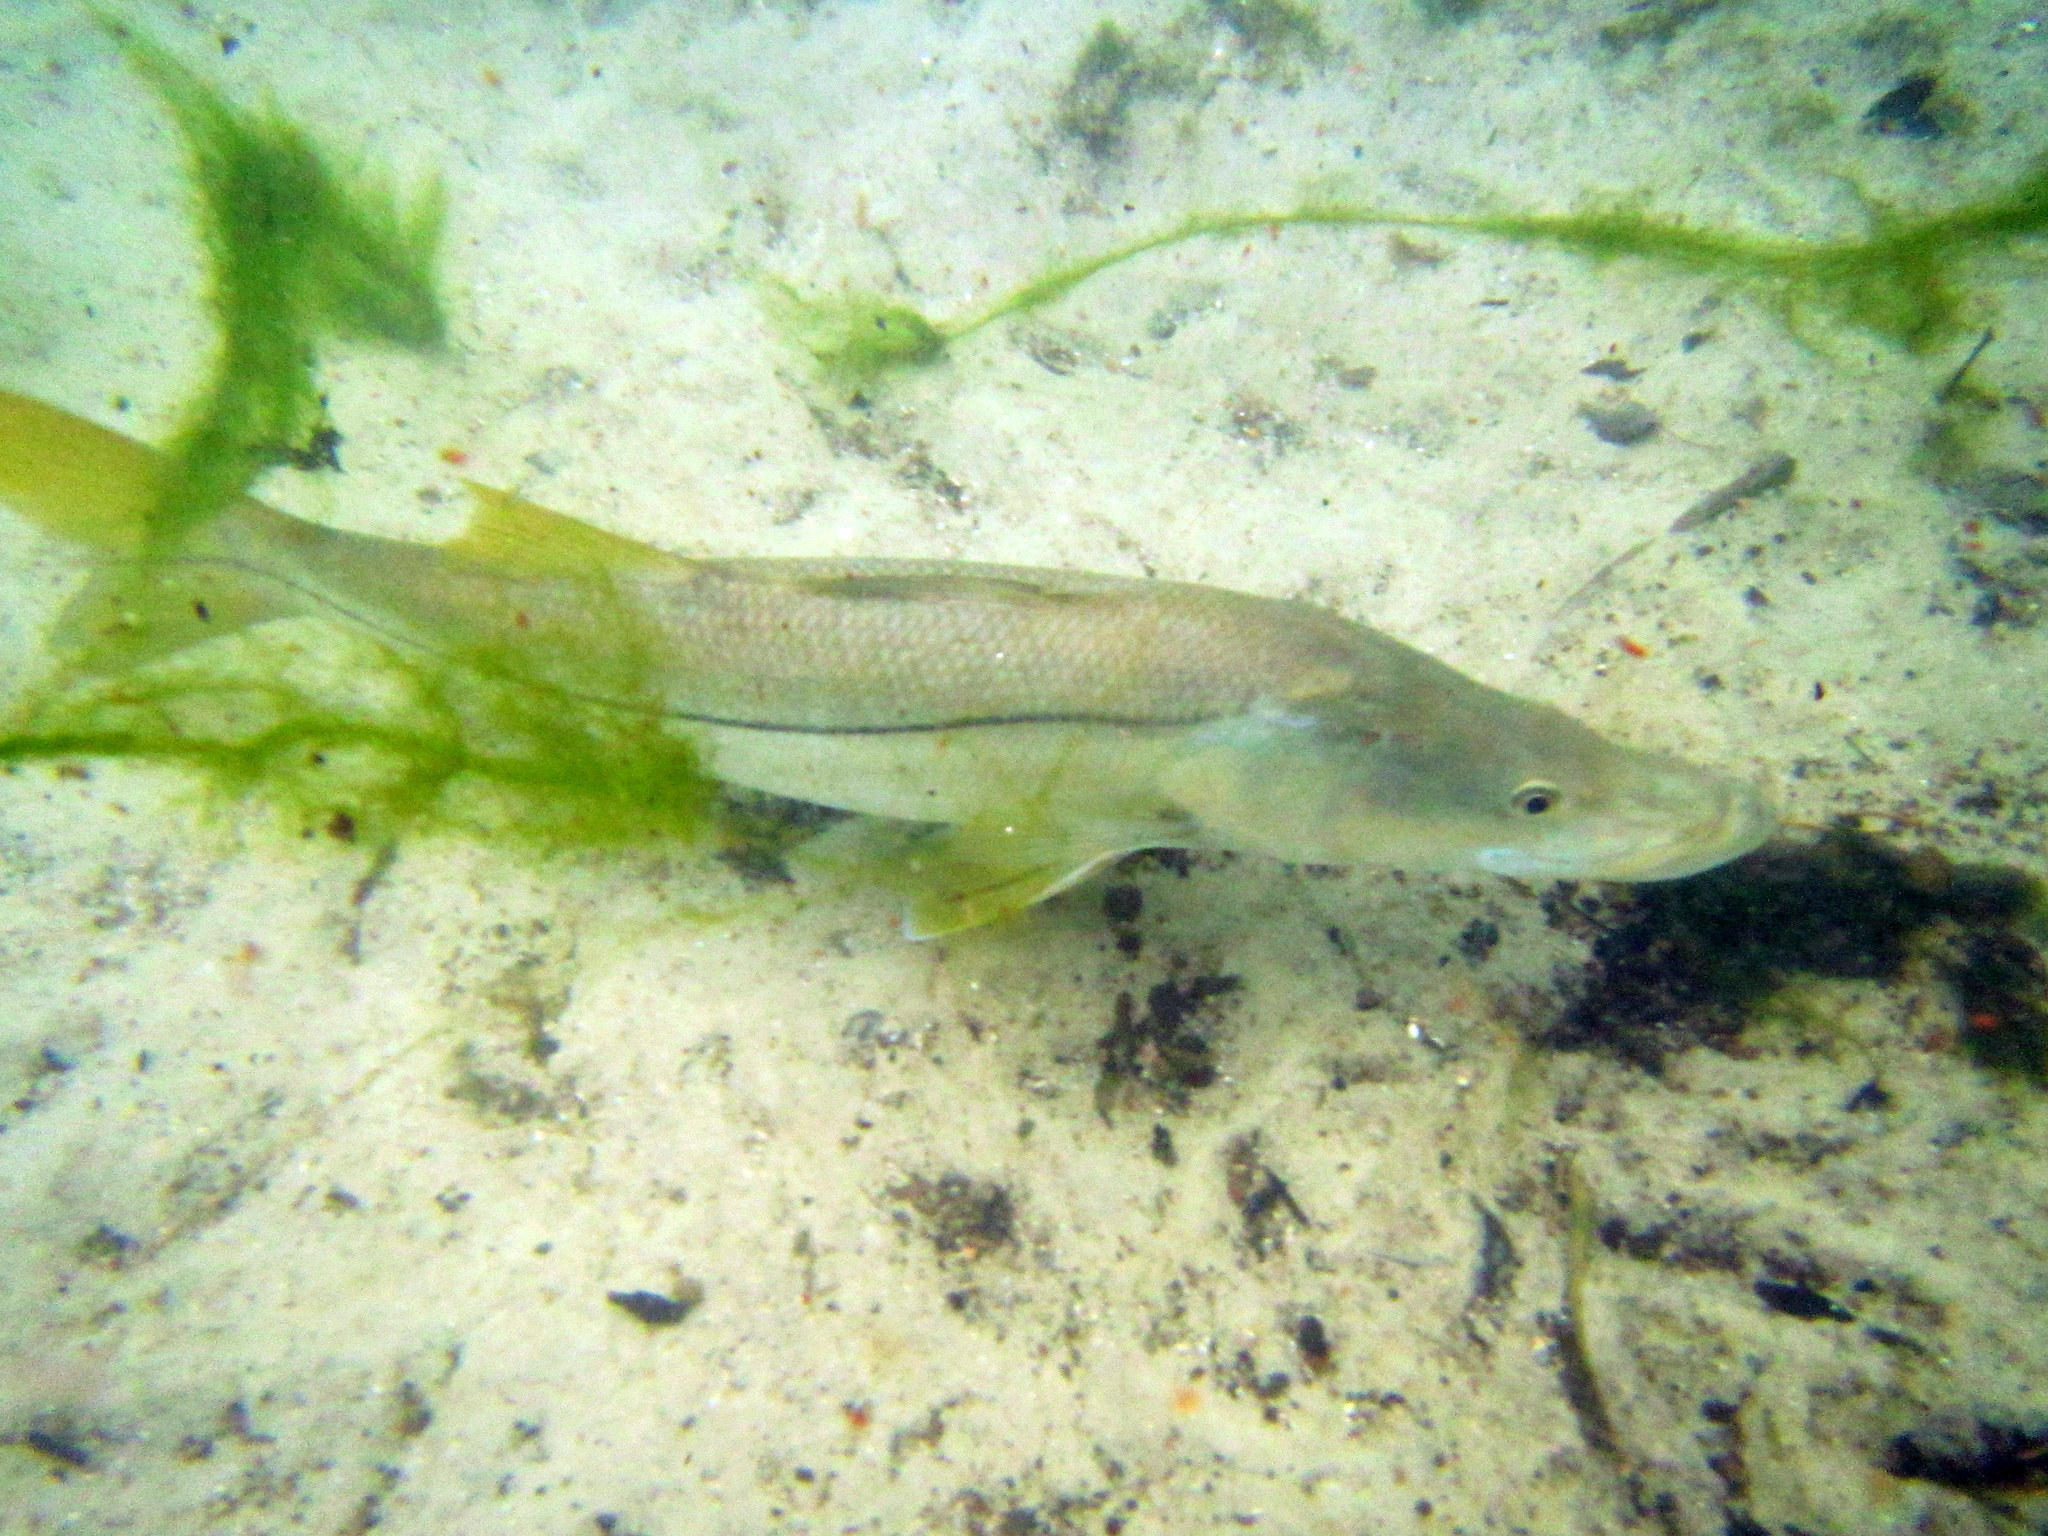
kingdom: Animalia
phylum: Chordata
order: Perciformes
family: Centropomidae
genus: Centropomus
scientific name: Centropomus undecimalis
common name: Snook
